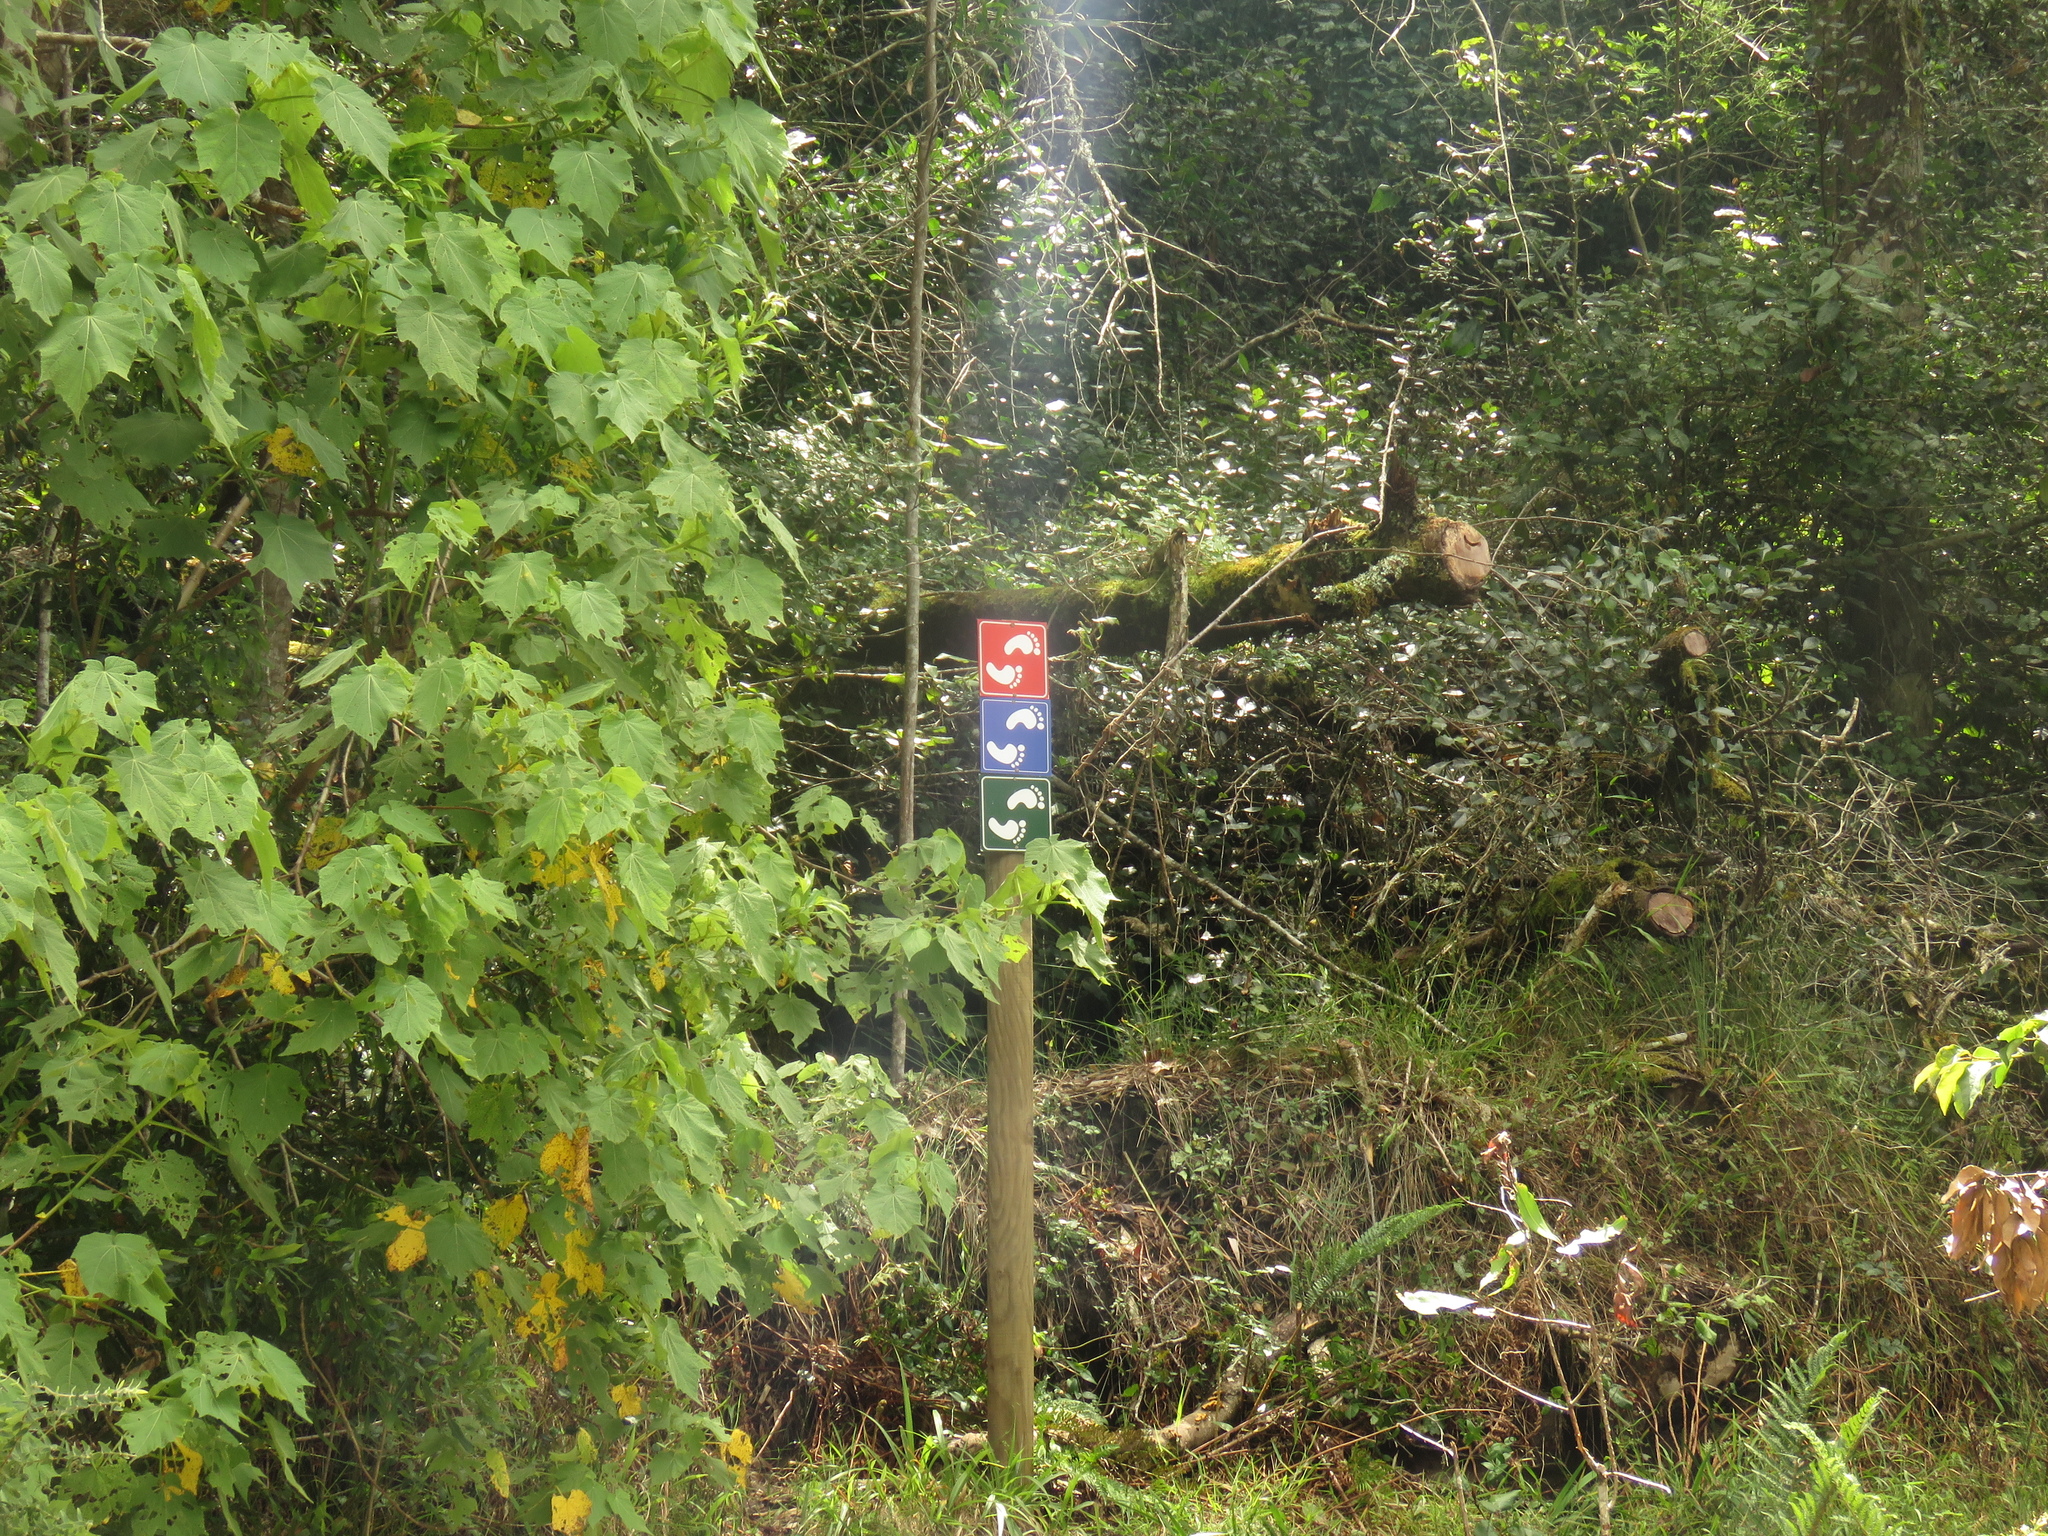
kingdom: Plantae
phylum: Tracheophyta
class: Magnoliopsida
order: Malvales
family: Malvaceae
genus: Sparrmannia
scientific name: Sparrmannia africana
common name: African-hemp
